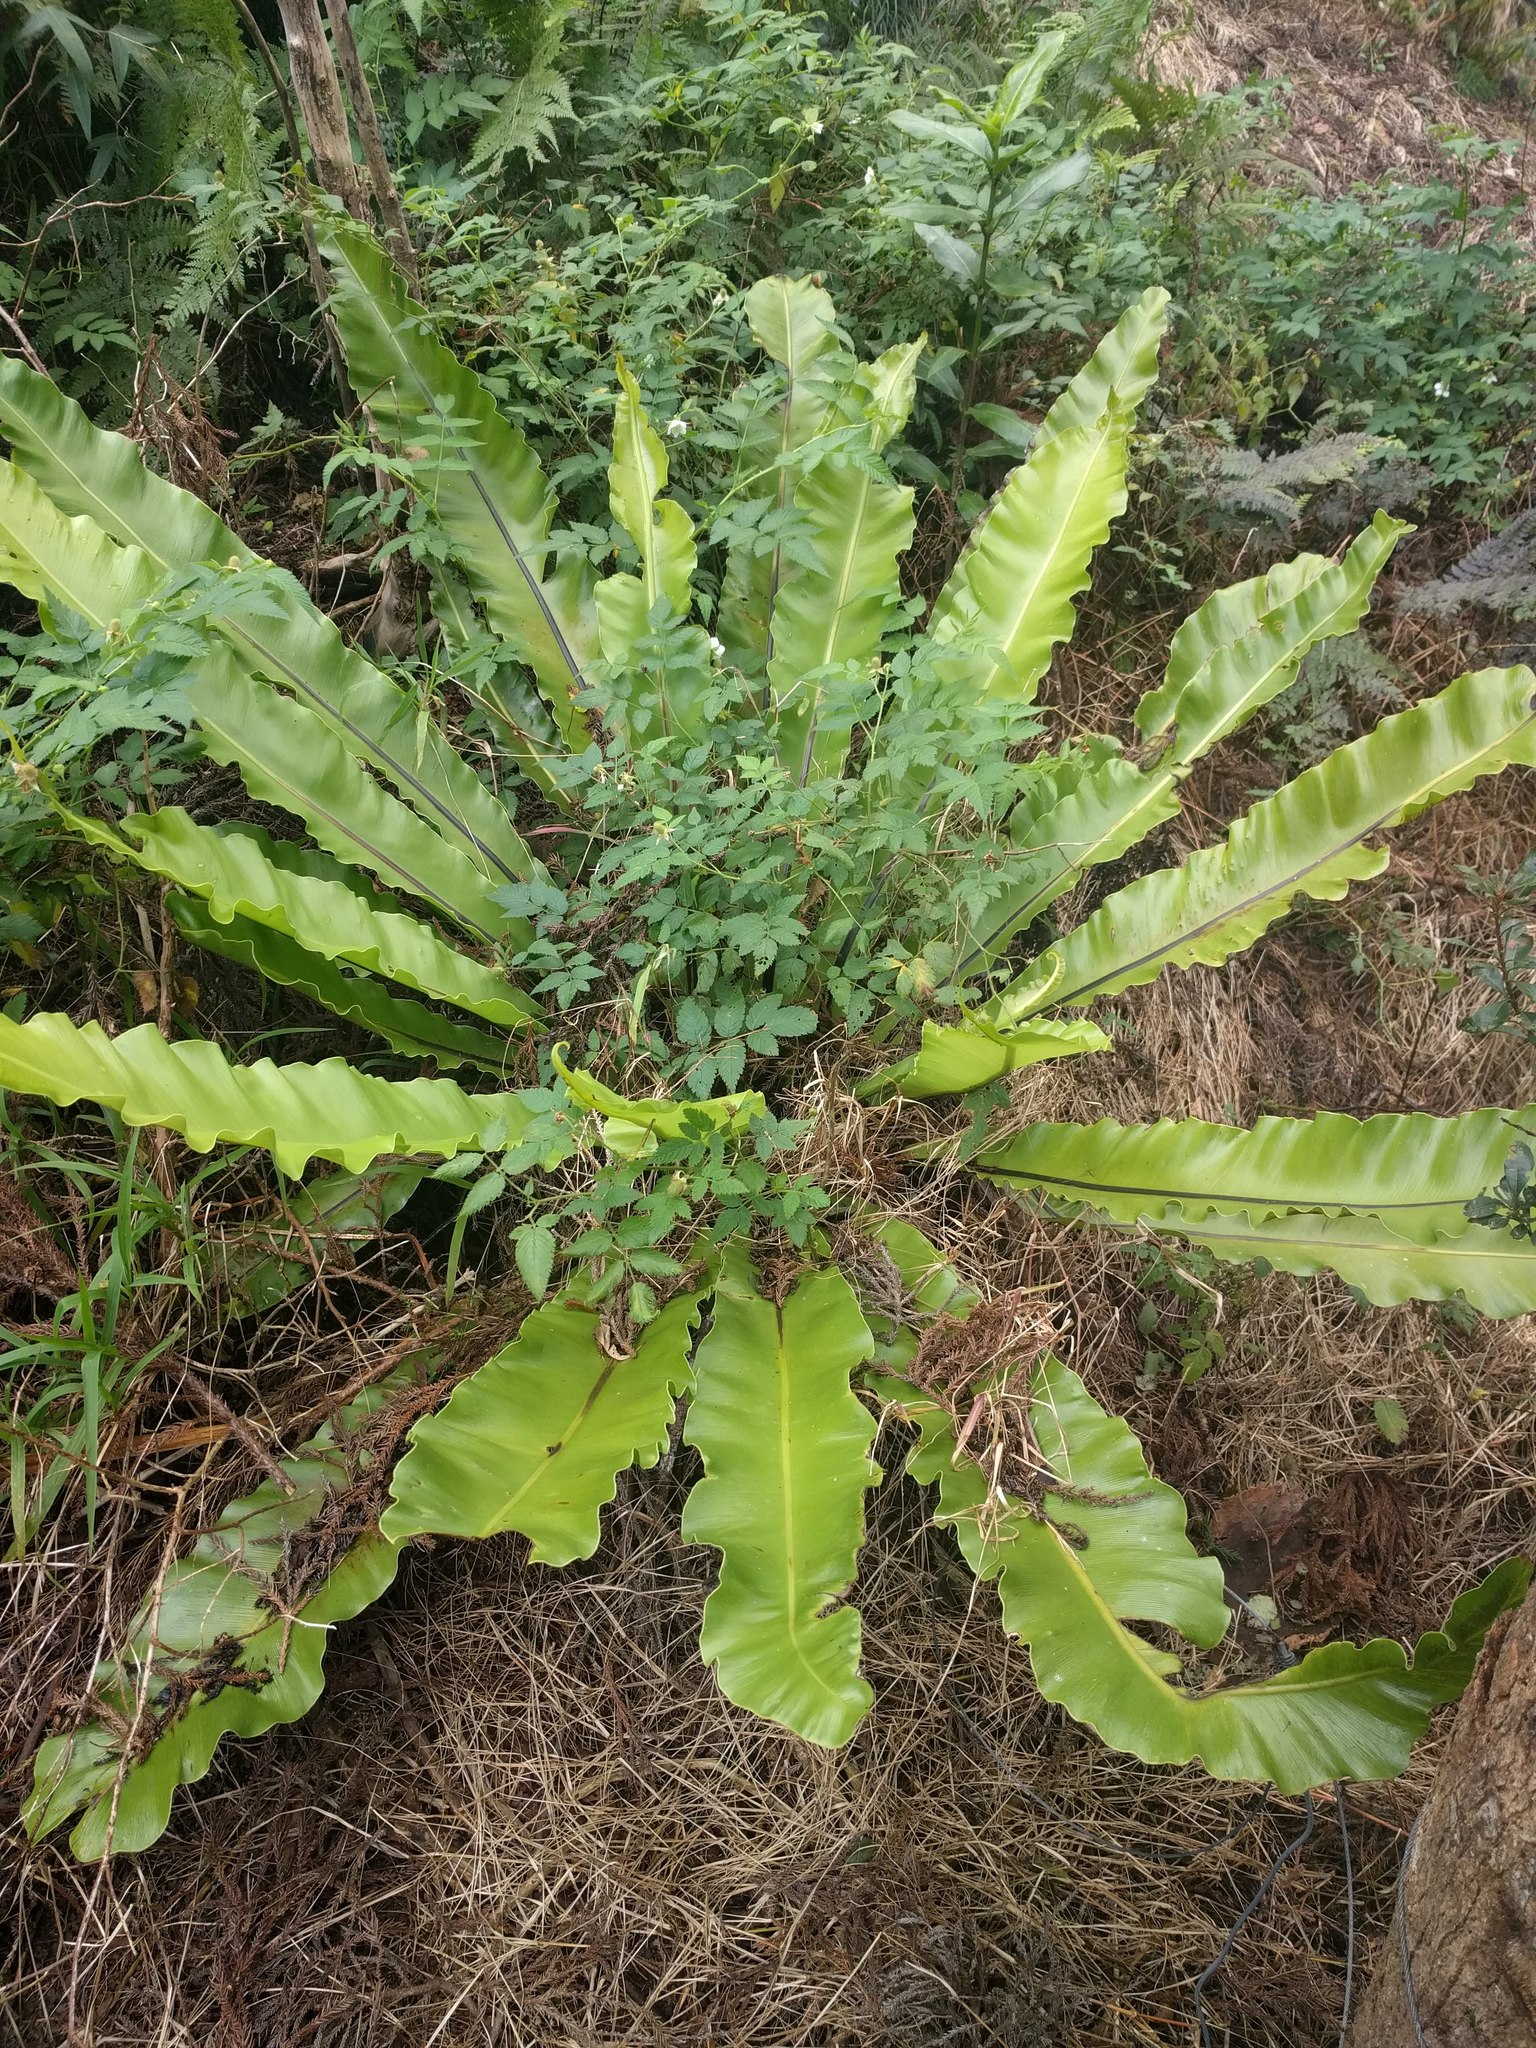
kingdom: Plantae
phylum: Tracheophyta
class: Polypodiopsida
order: Polypodiales
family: Aspleniaceae
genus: Asplenium
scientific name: Asplenium nidus
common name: Bird's-nest fern
